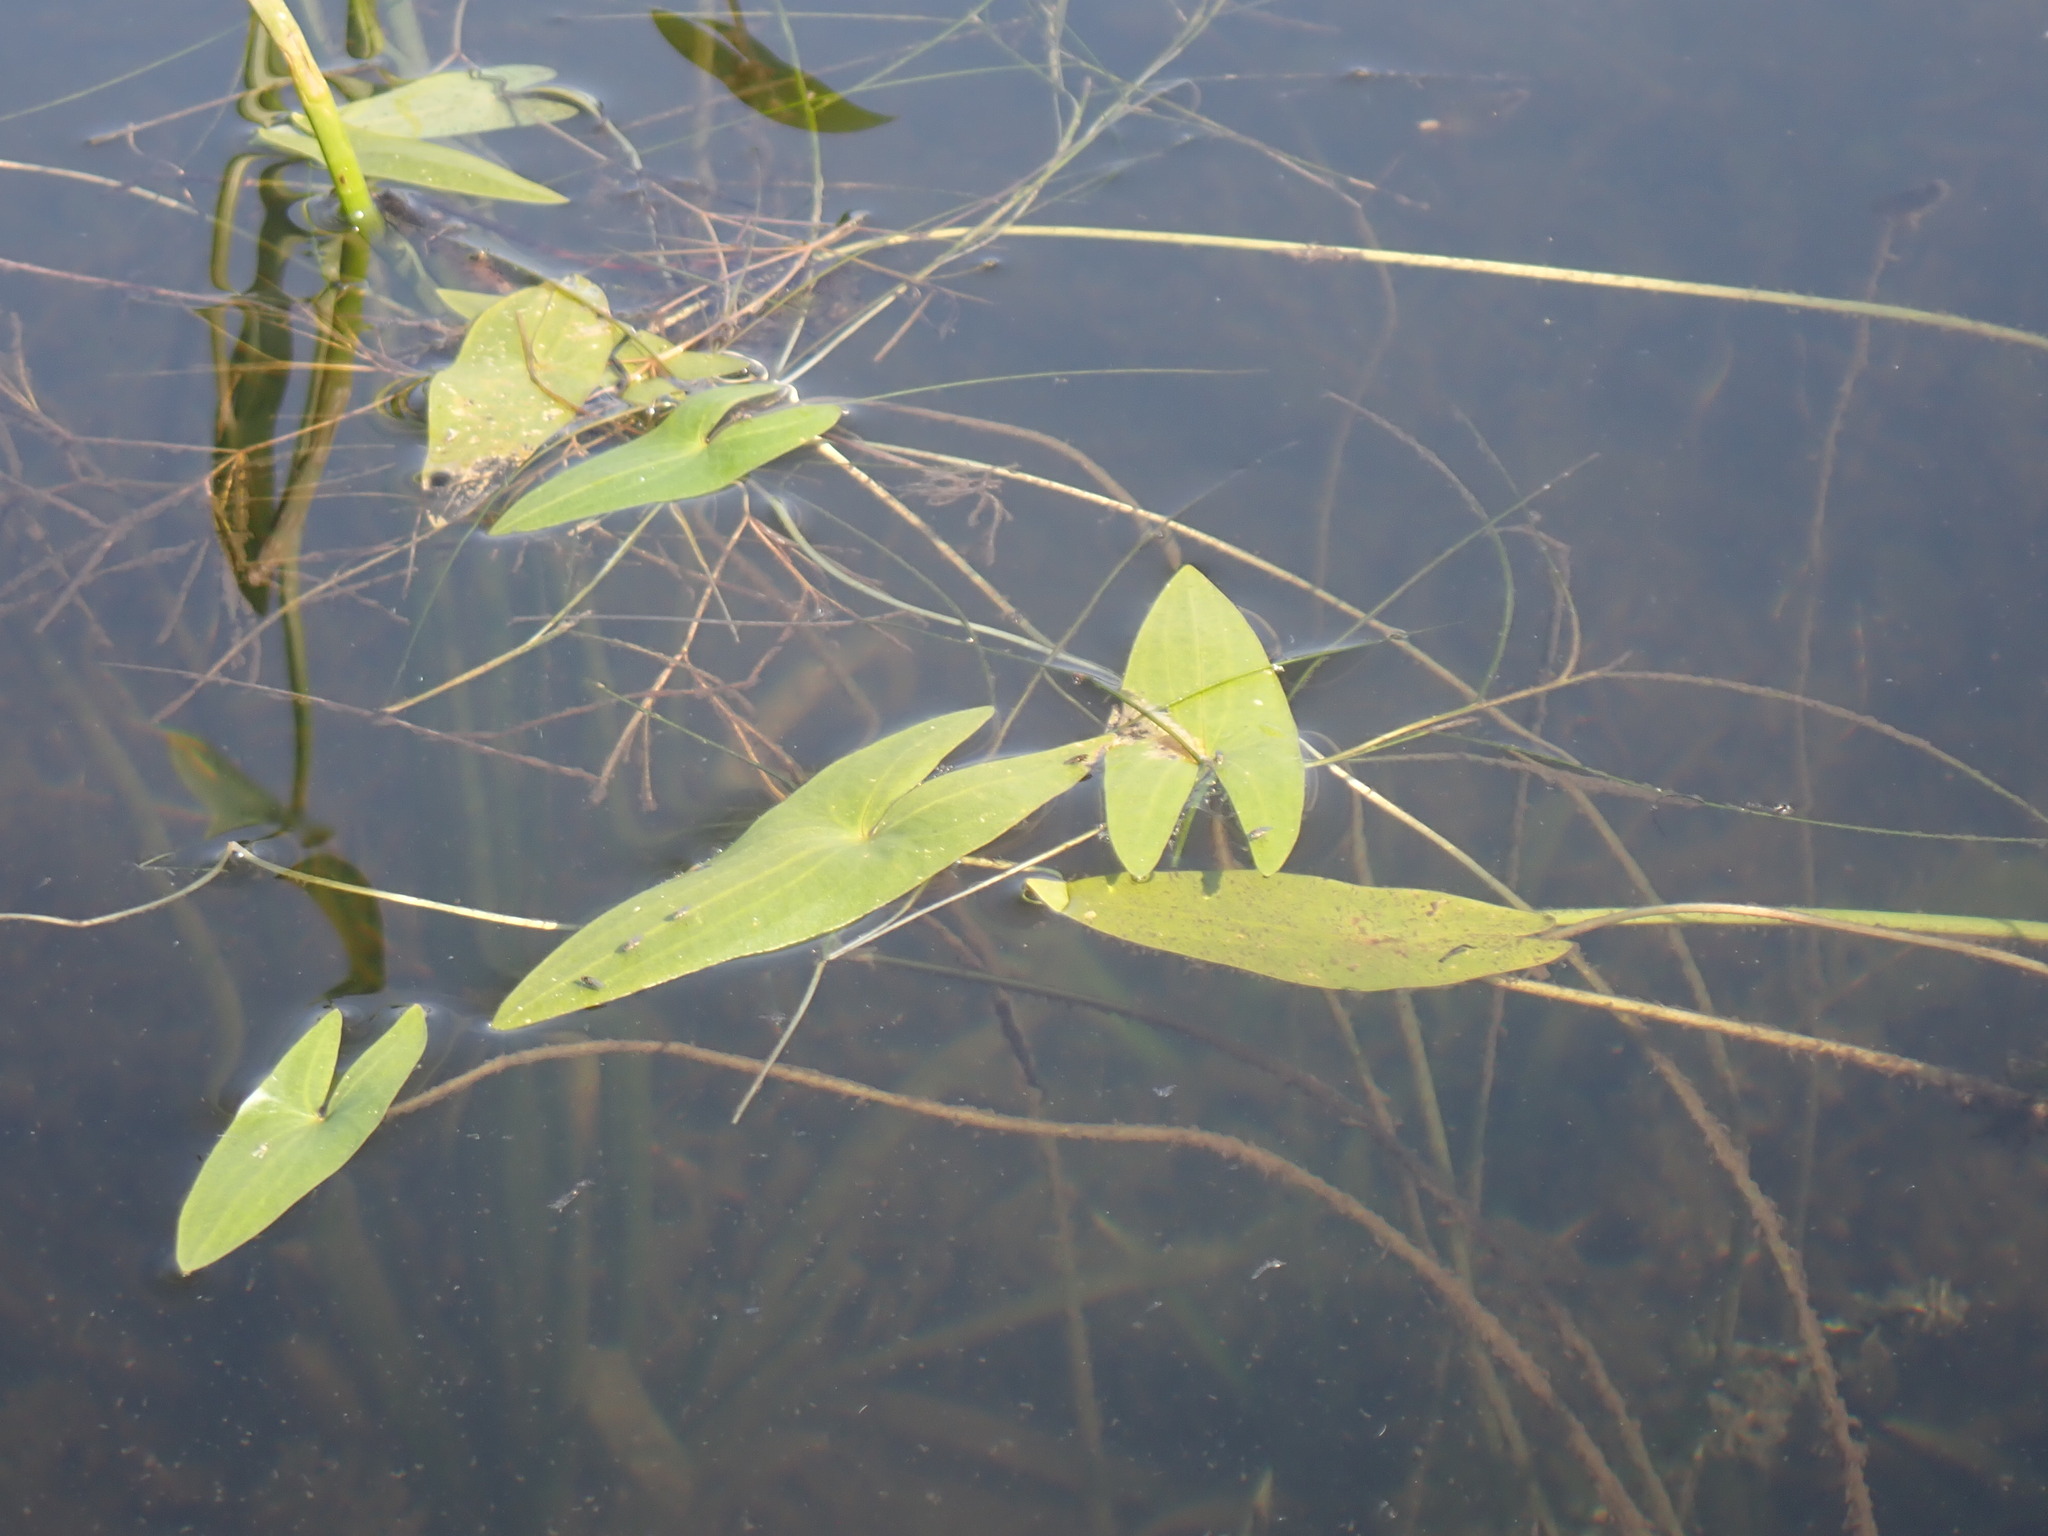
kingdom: Plantae
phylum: Tracheophyta
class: Liliopsida
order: Alismatales
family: Alismataceae
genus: Sagittaria
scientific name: Sagittaria cuneata
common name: Northern arrowhead
